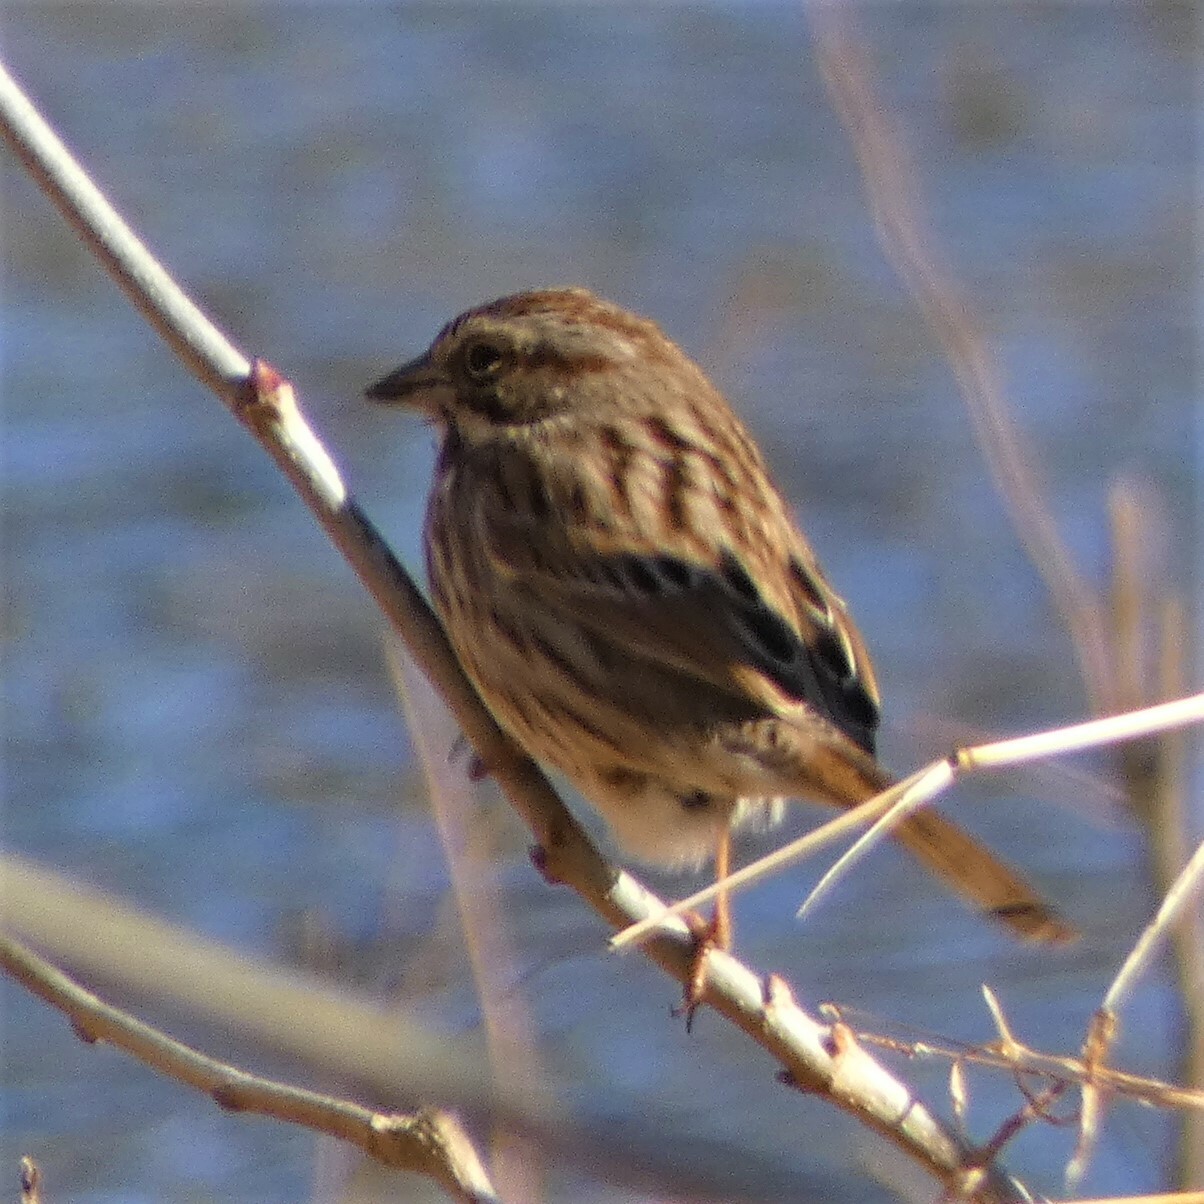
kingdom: Animalia
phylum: Chordata
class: Aves
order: Passeriformes
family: Passerellidae
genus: Melospiza
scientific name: Melospiza melodia
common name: Song sparrow
